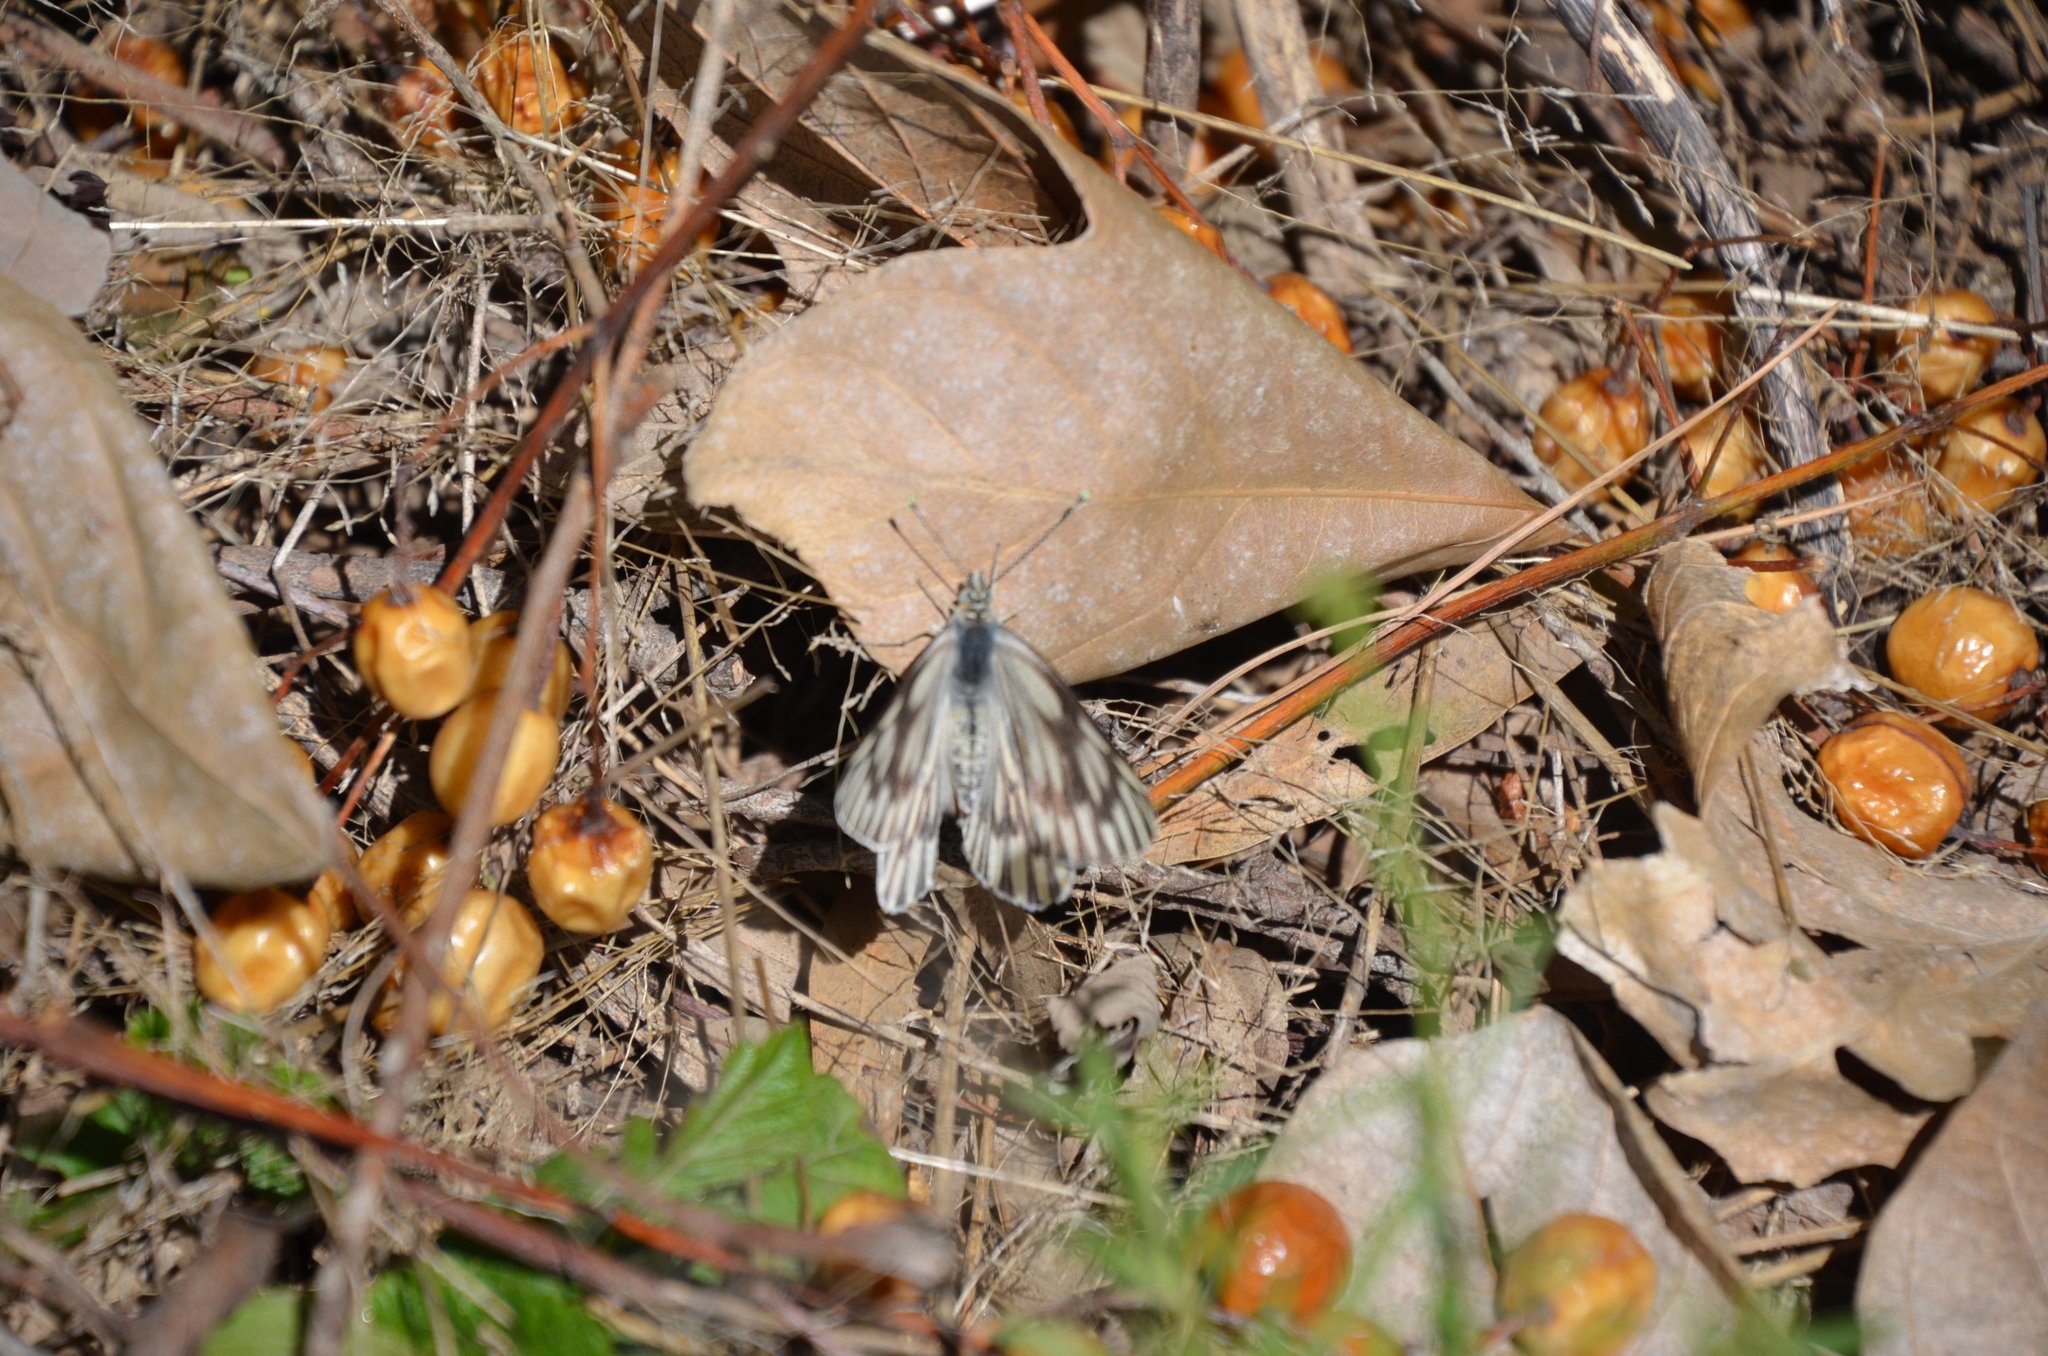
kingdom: Animalia
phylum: Arthropoda
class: Insecta
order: Lepidoptera
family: Pieridae
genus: Tatochila
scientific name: Tatochila mercedis
